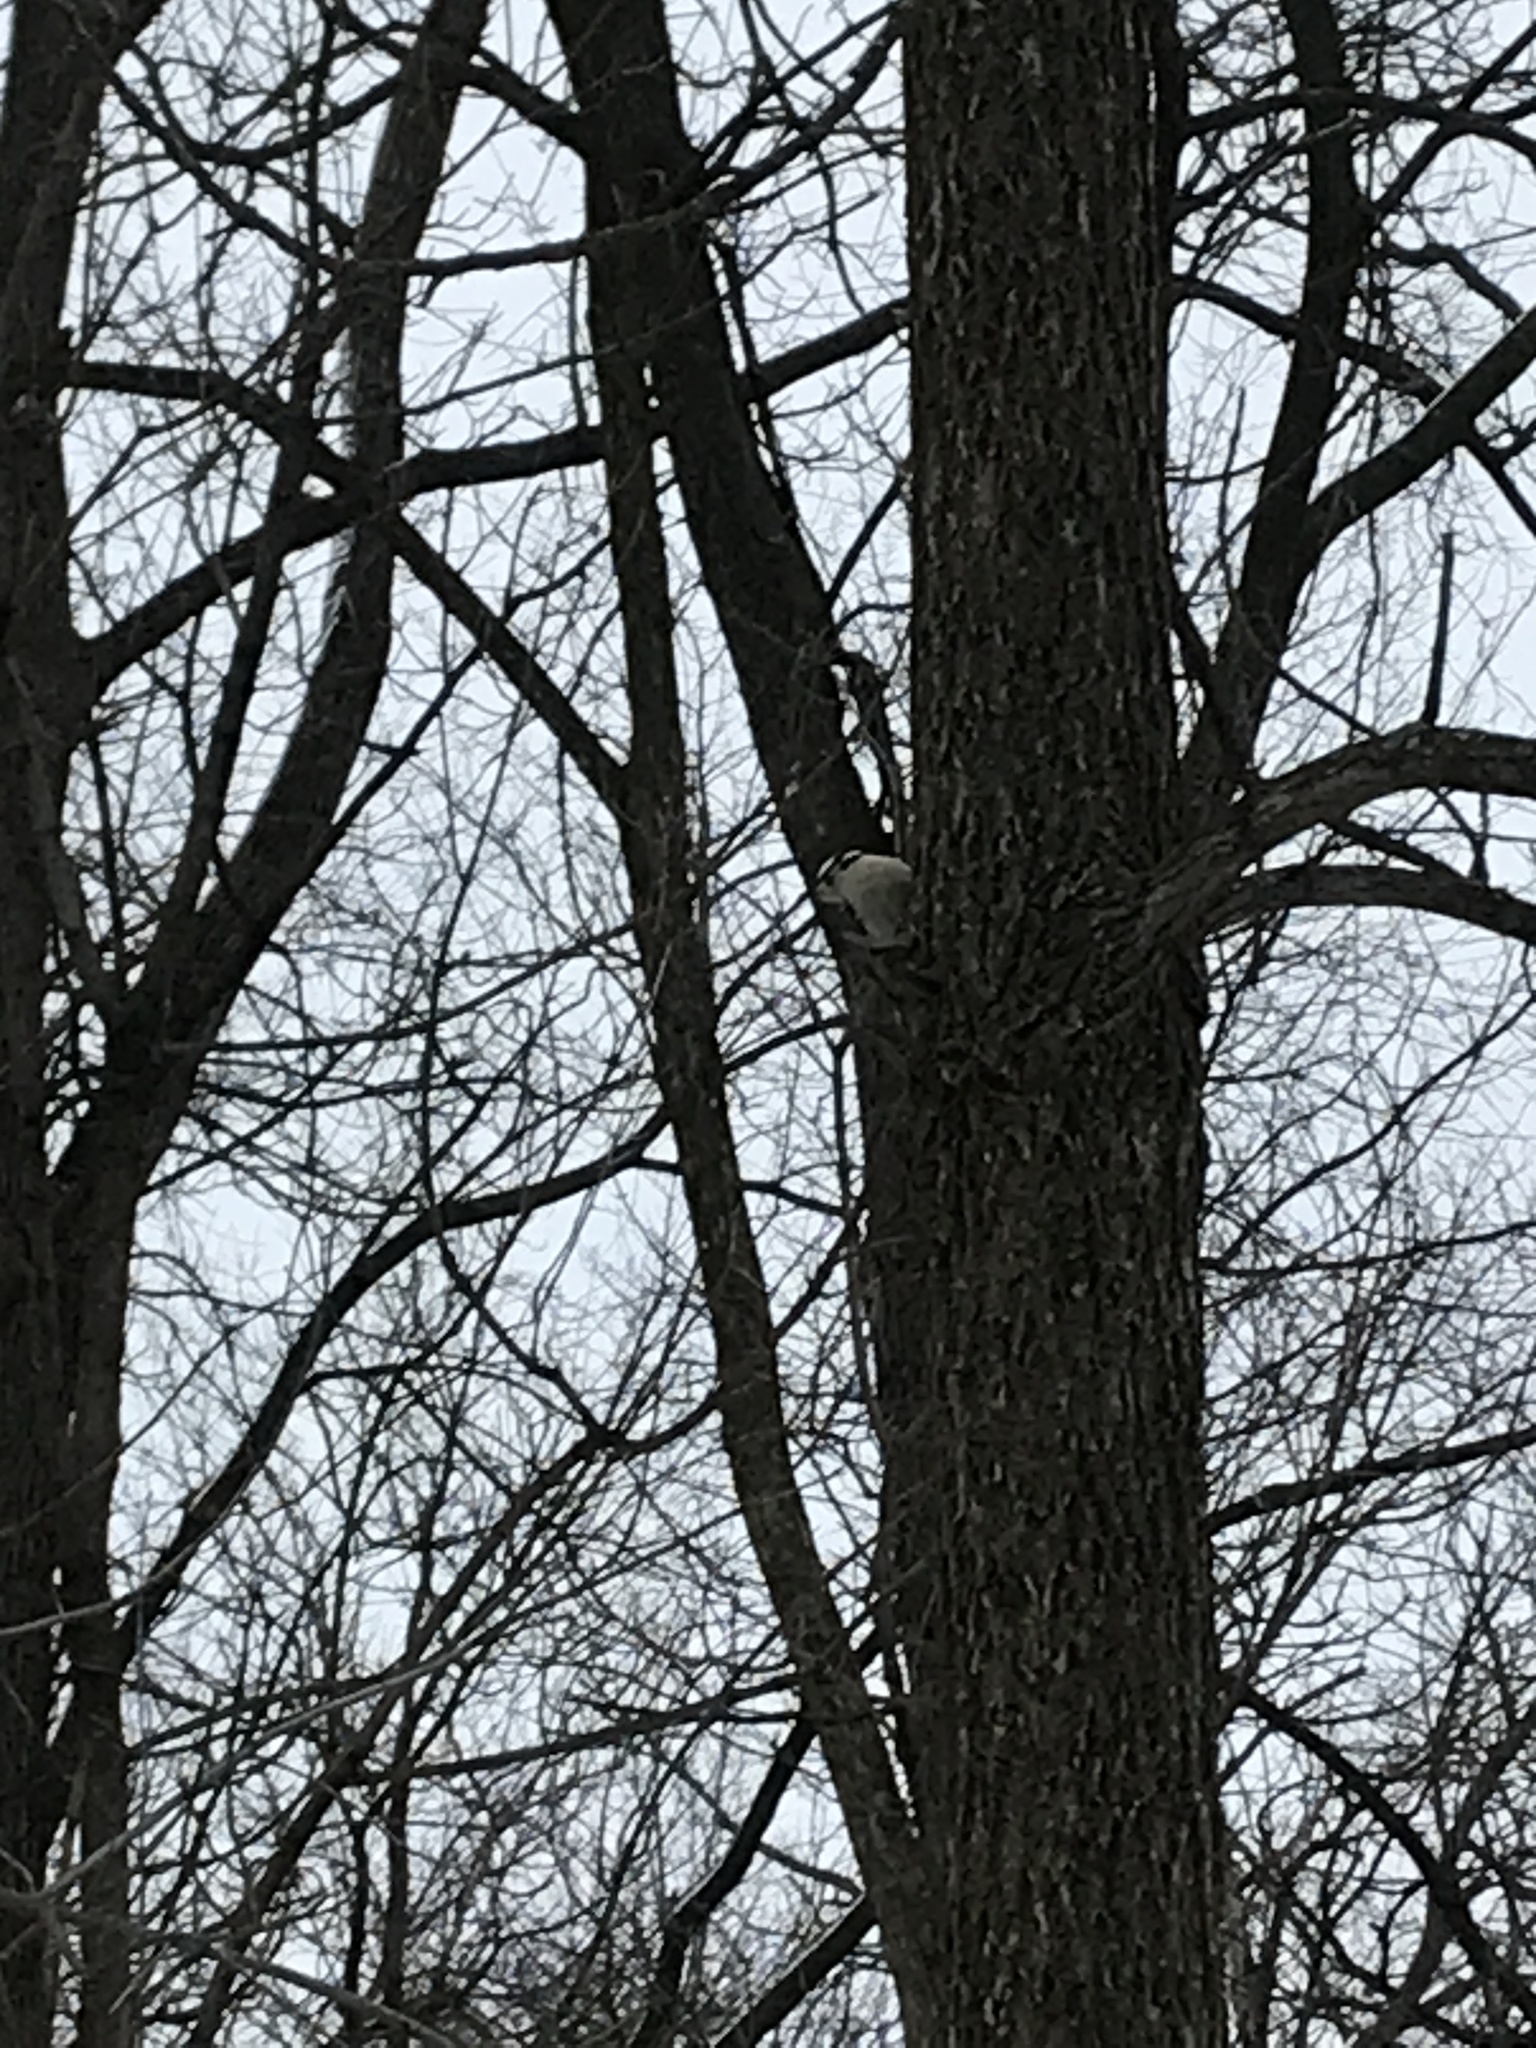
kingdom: Animalia
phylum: Chordata
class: Aves
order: Piciformes
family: Picidae
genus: Dryobates
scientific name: Dryobates pubescens
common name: Downy woodpecker
